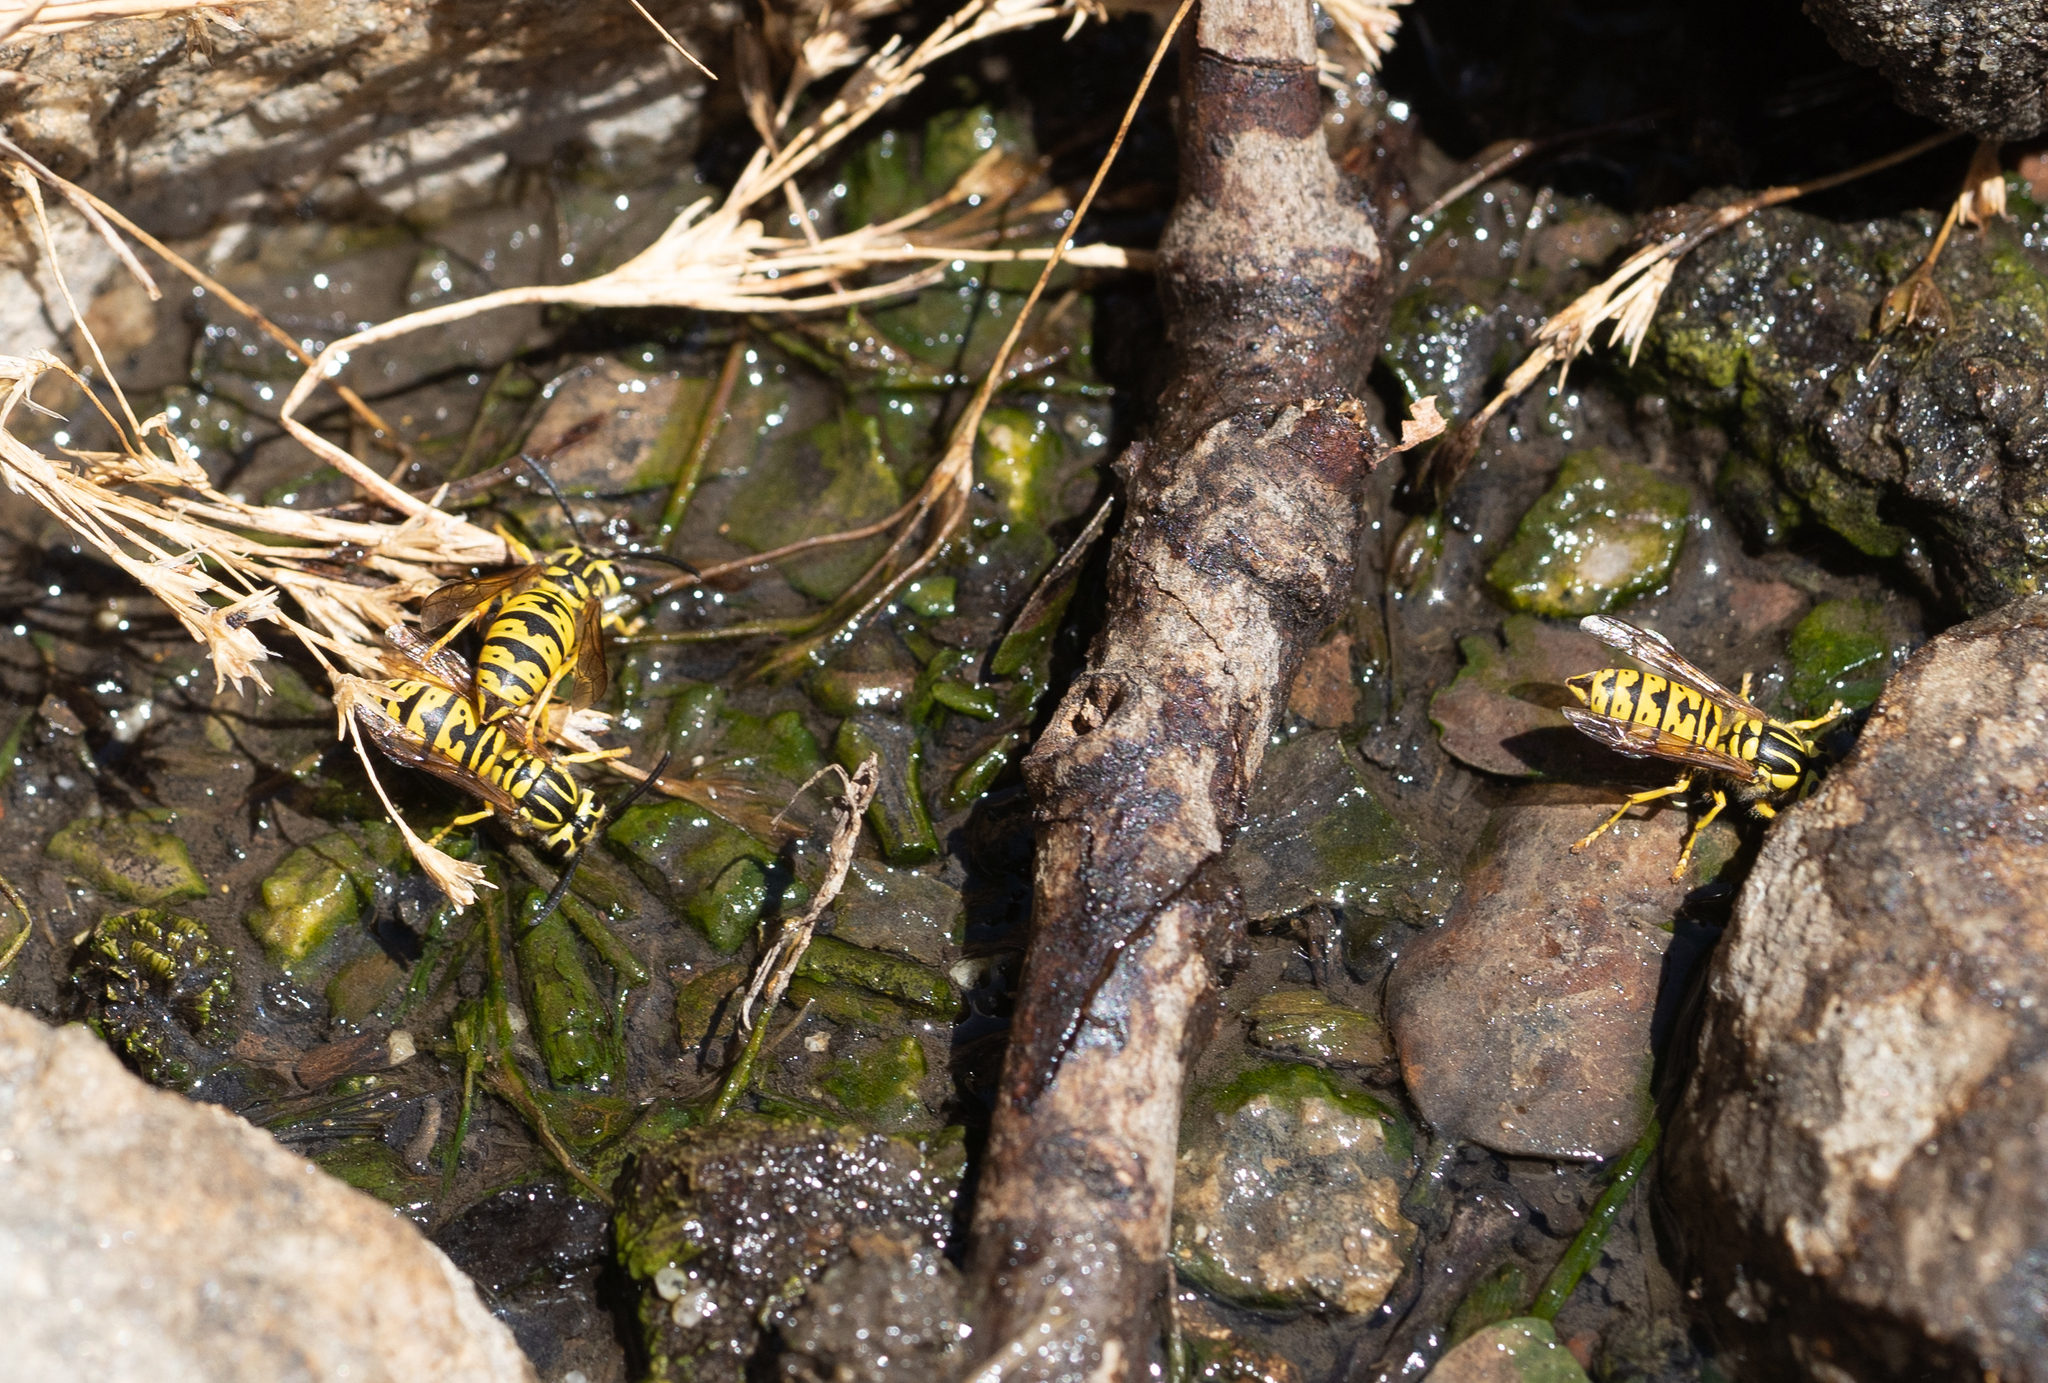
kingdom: Animalia
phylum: Arthropoda
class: Insecta
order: Hymenoptera
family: Vespidae
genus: Vespula
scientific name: Vespula sulphurea
